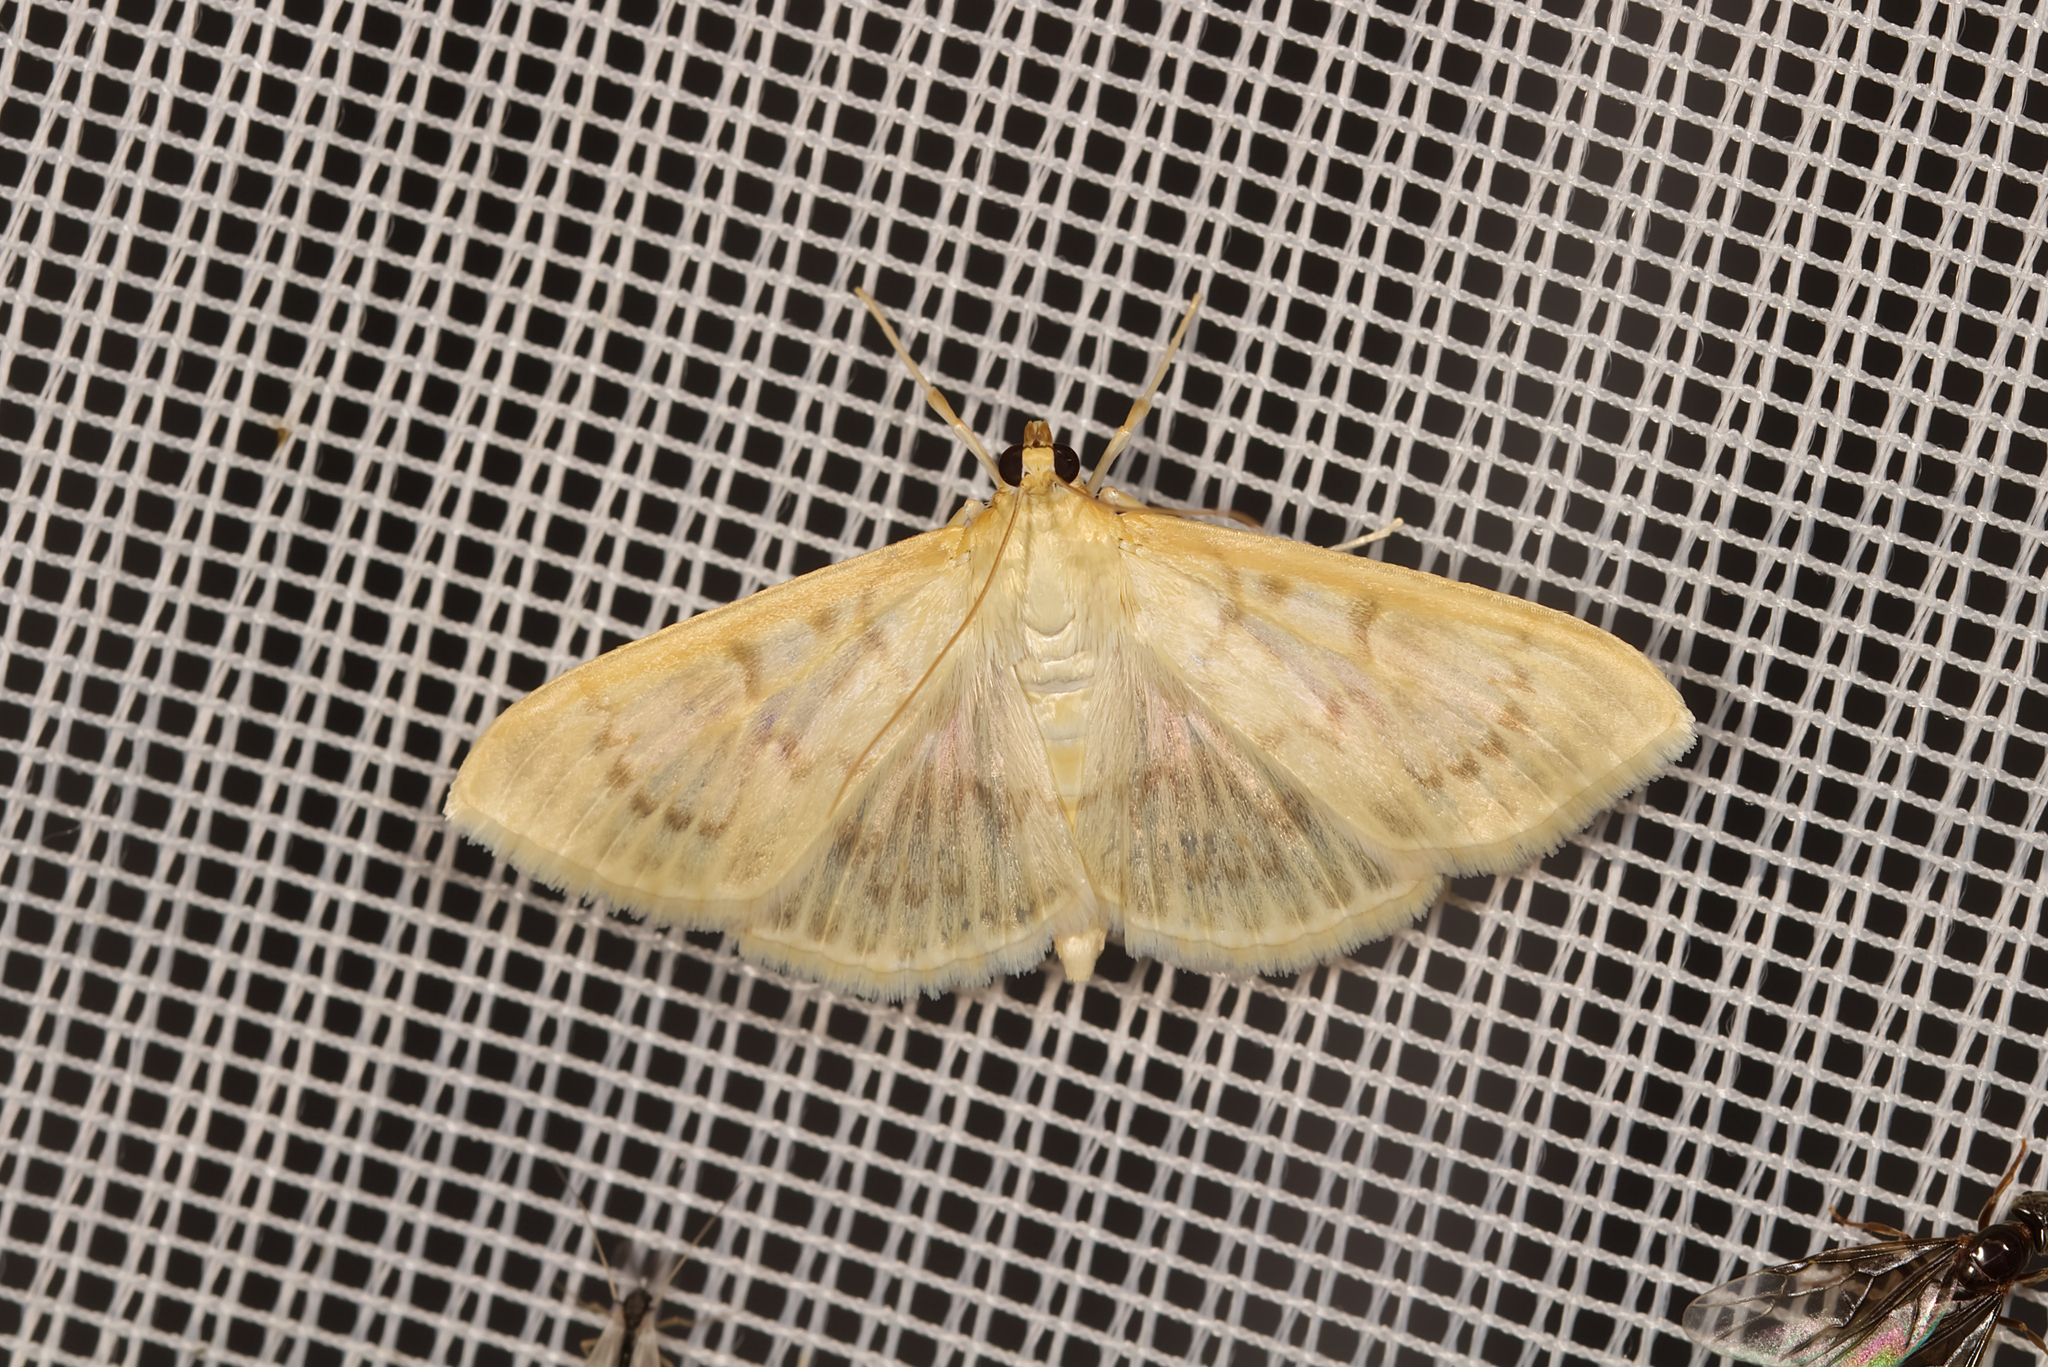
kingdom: Animalia
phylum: Arthropoda
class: Insecta
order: Lepidoptera
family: Crambidae
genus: Patania
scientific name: Patania ruralis
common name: Mother of pearl
